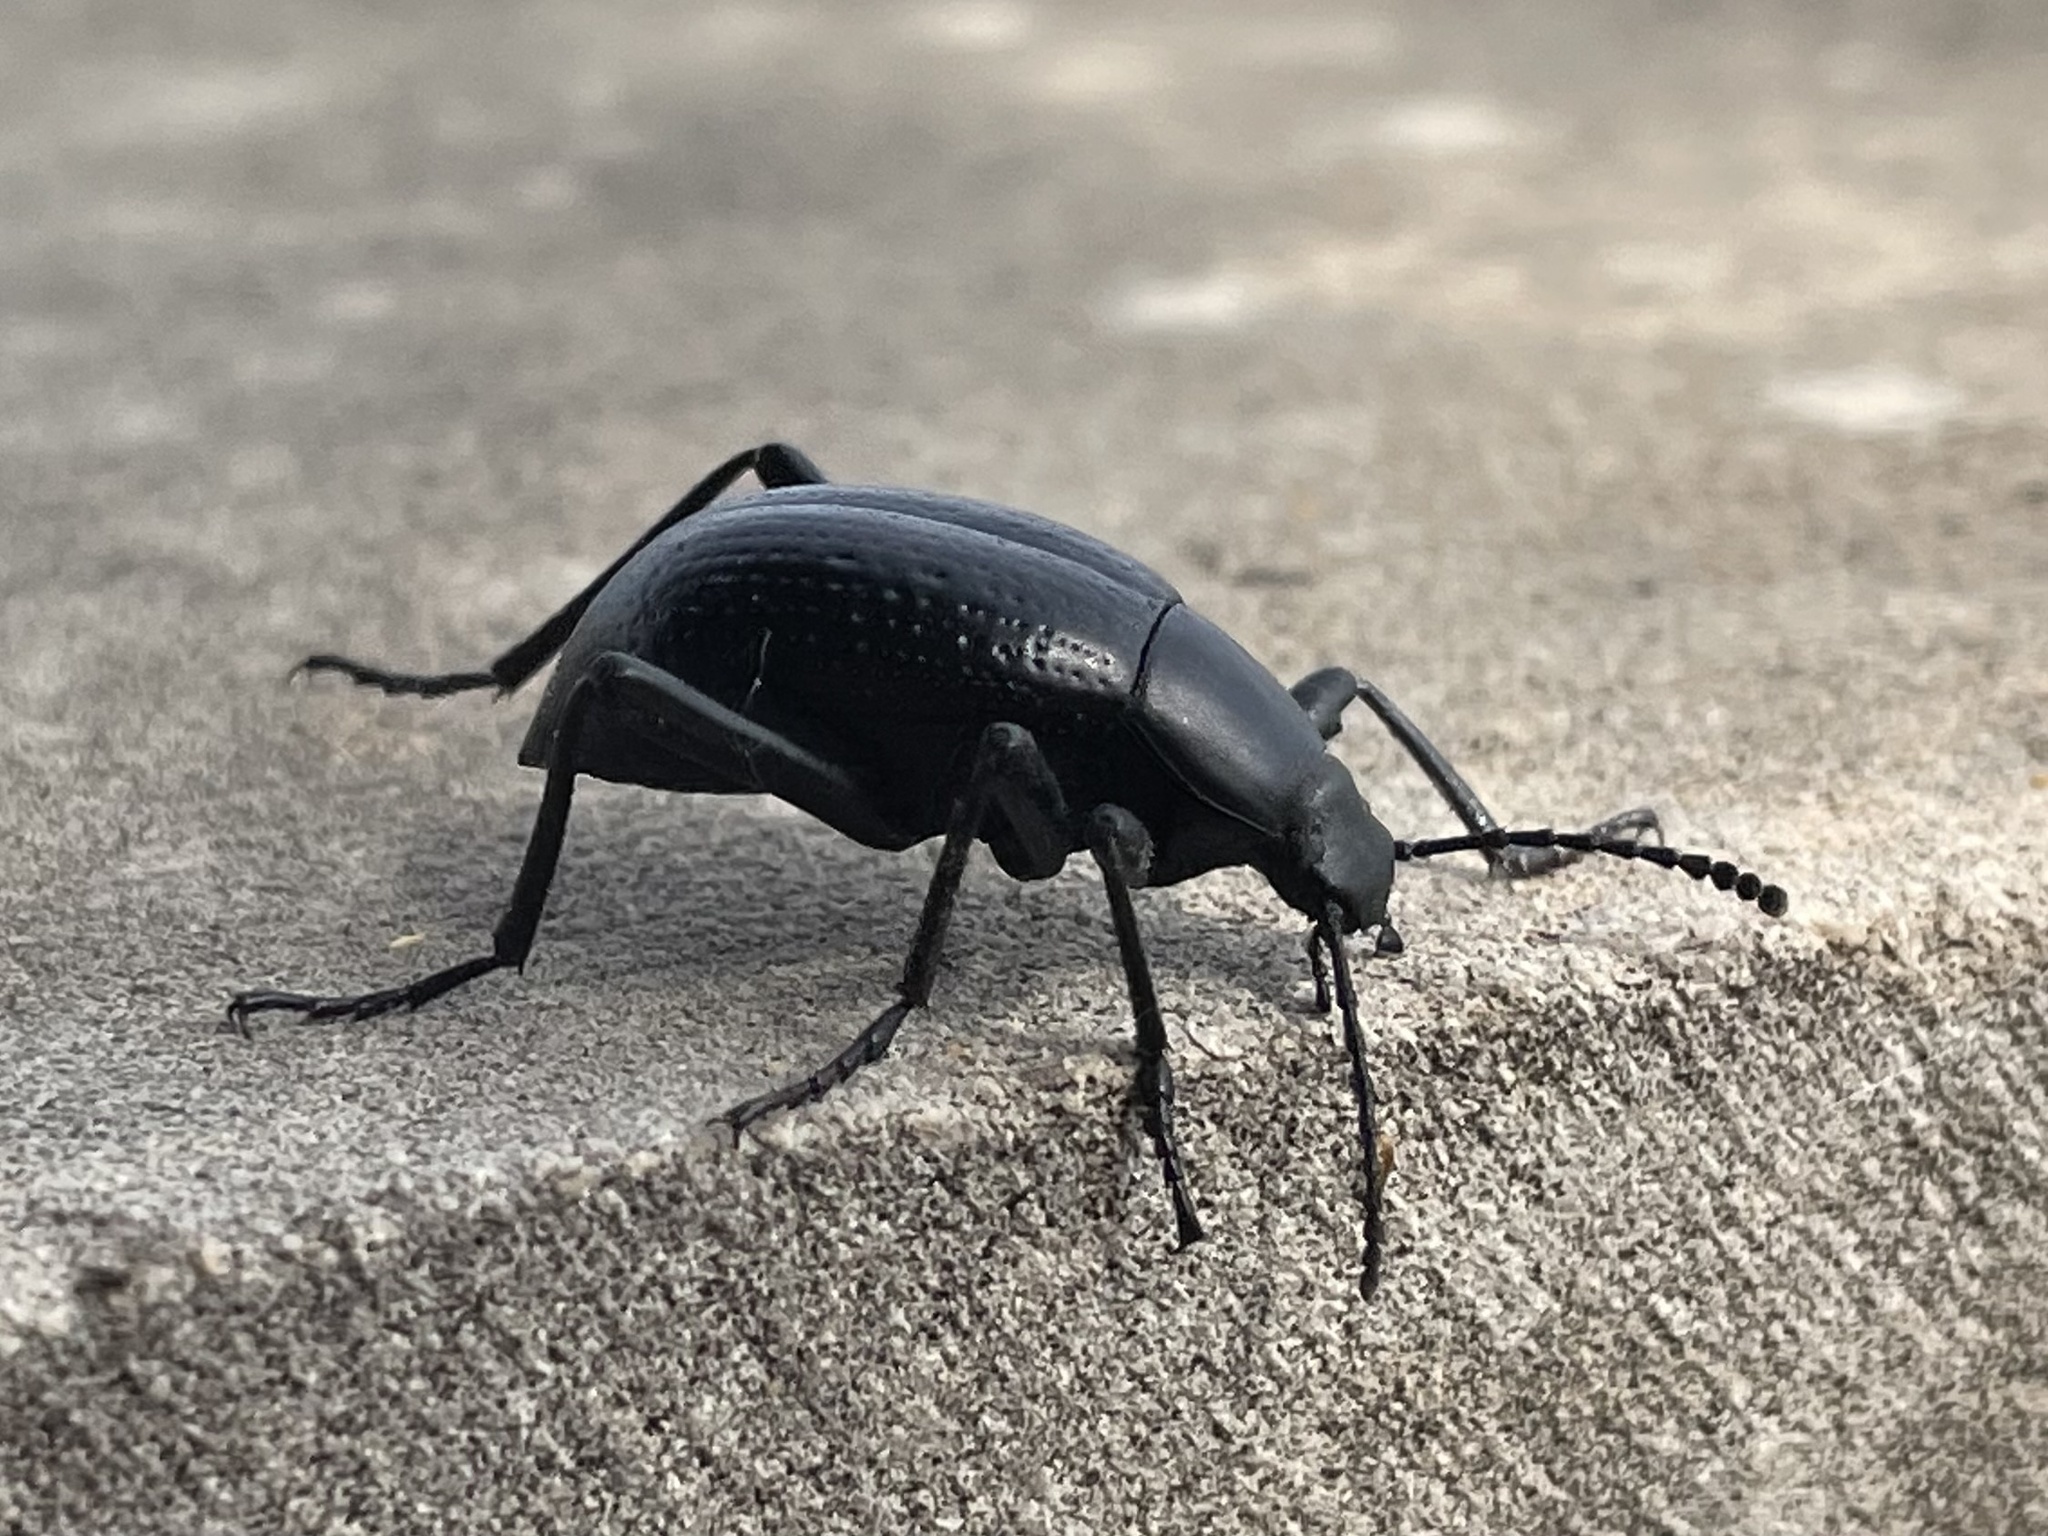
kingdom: Animalia
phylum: Arthropoda
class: Insecta
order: Coleoptera
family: Tenebrionidae
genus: Eleodes
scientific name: Eleodes goryi
